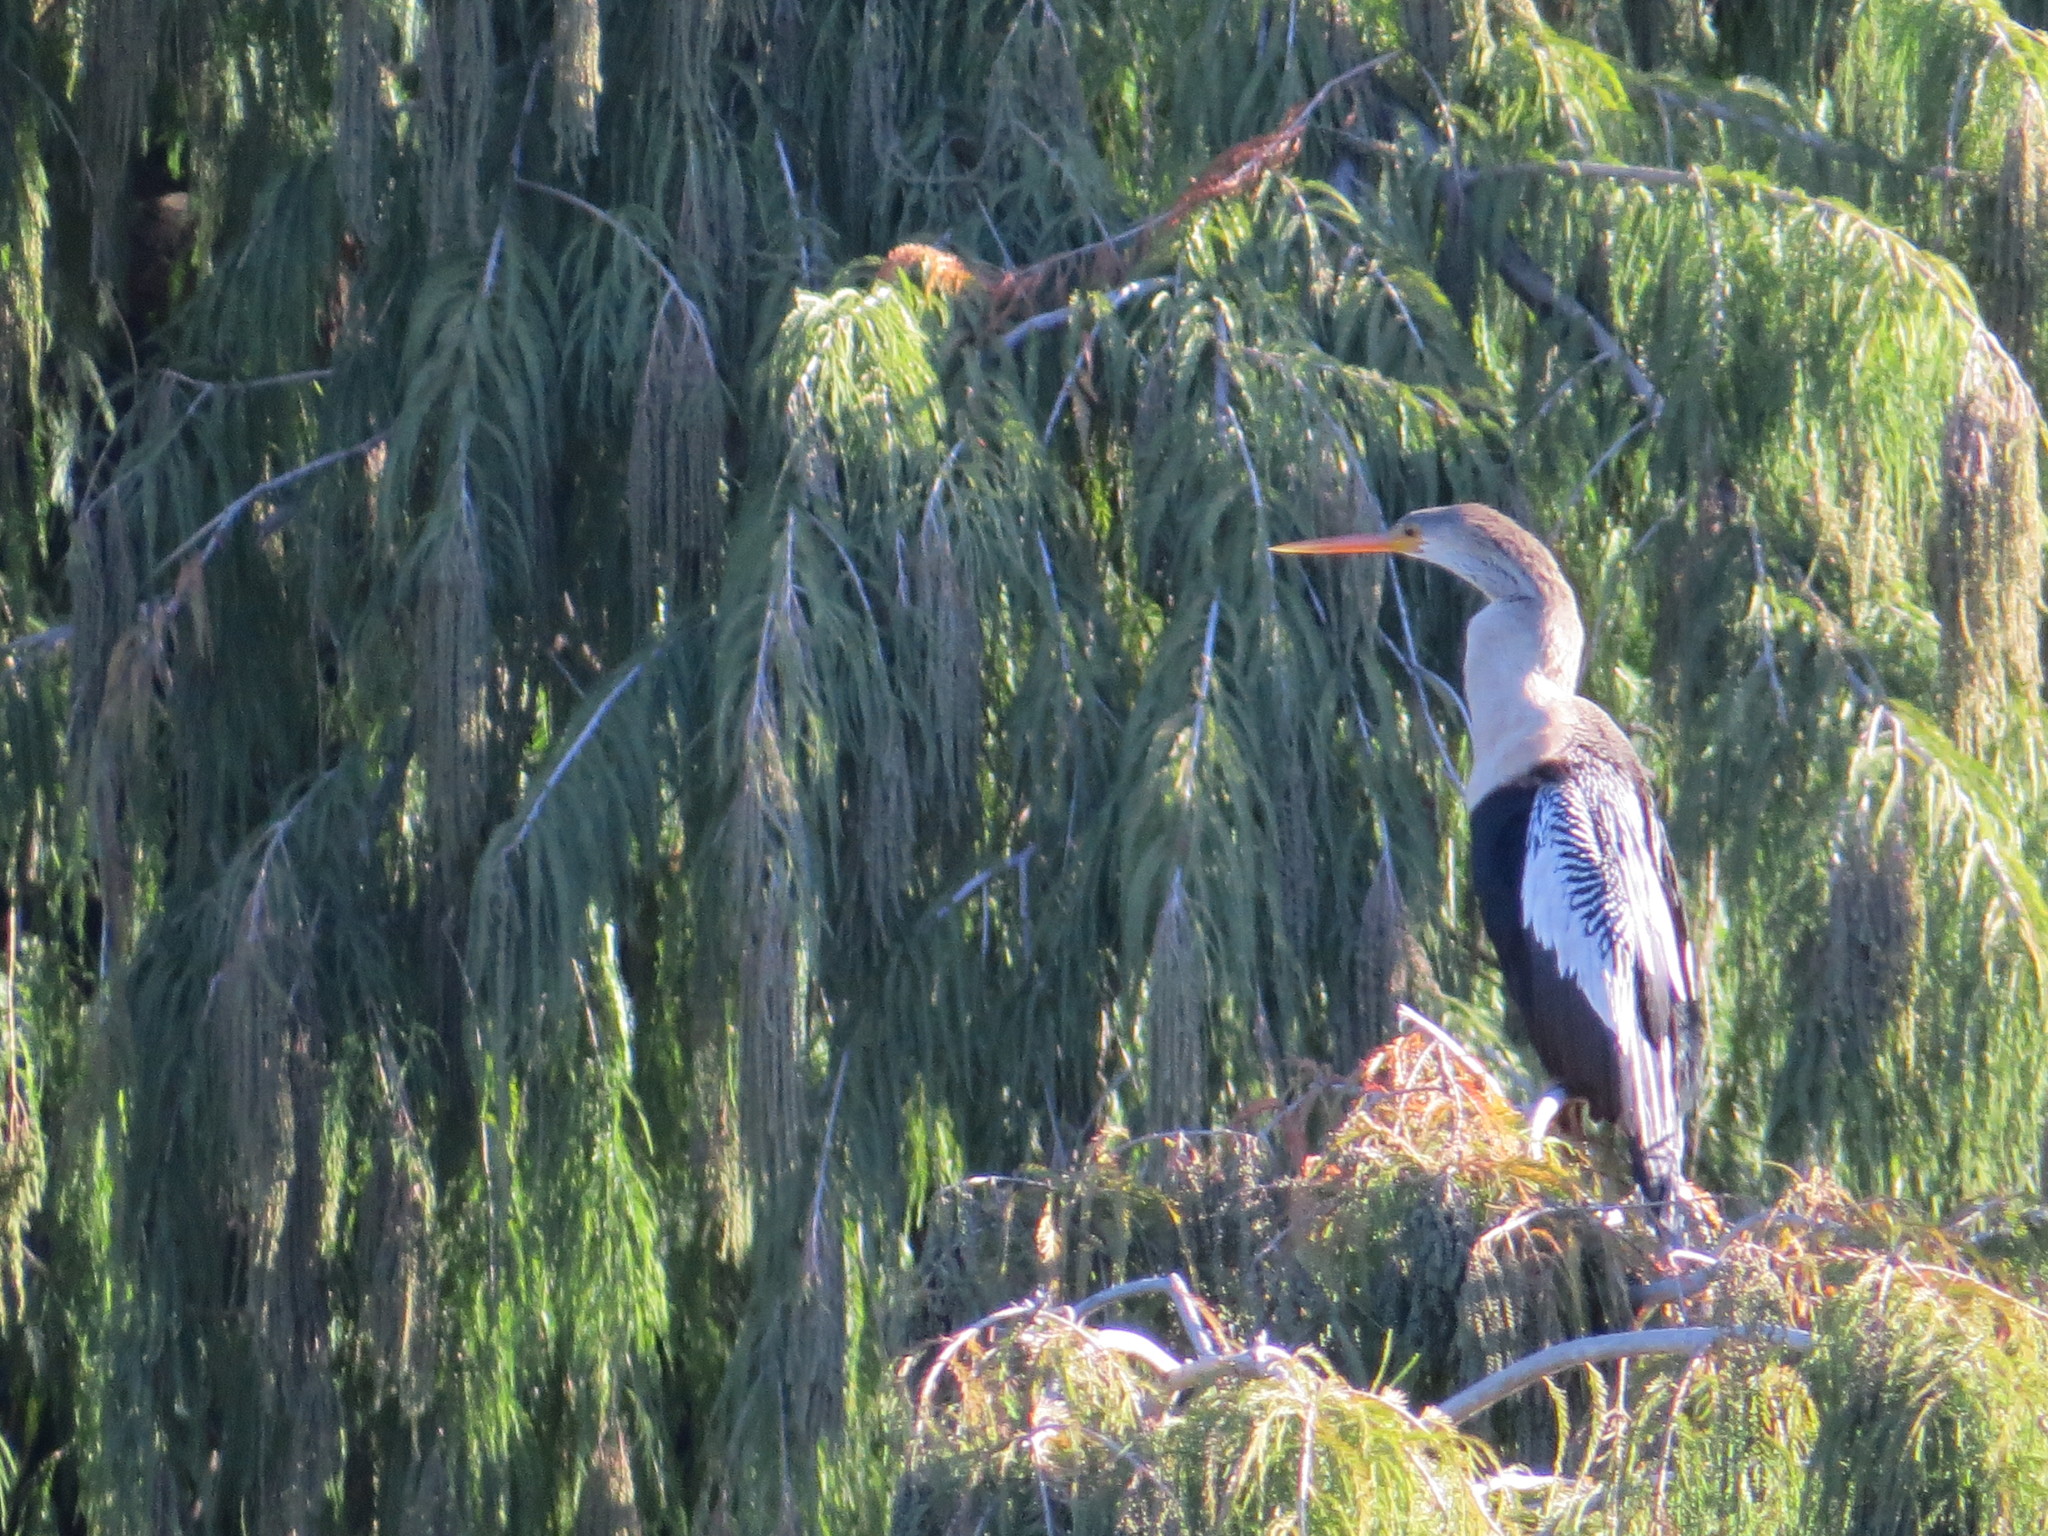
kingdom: Animalia
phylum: Chordata
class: Aves
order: Suliformes
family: Anhingidae
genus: Anhinga
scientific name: Anhinga anhinga
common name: Anhinga
